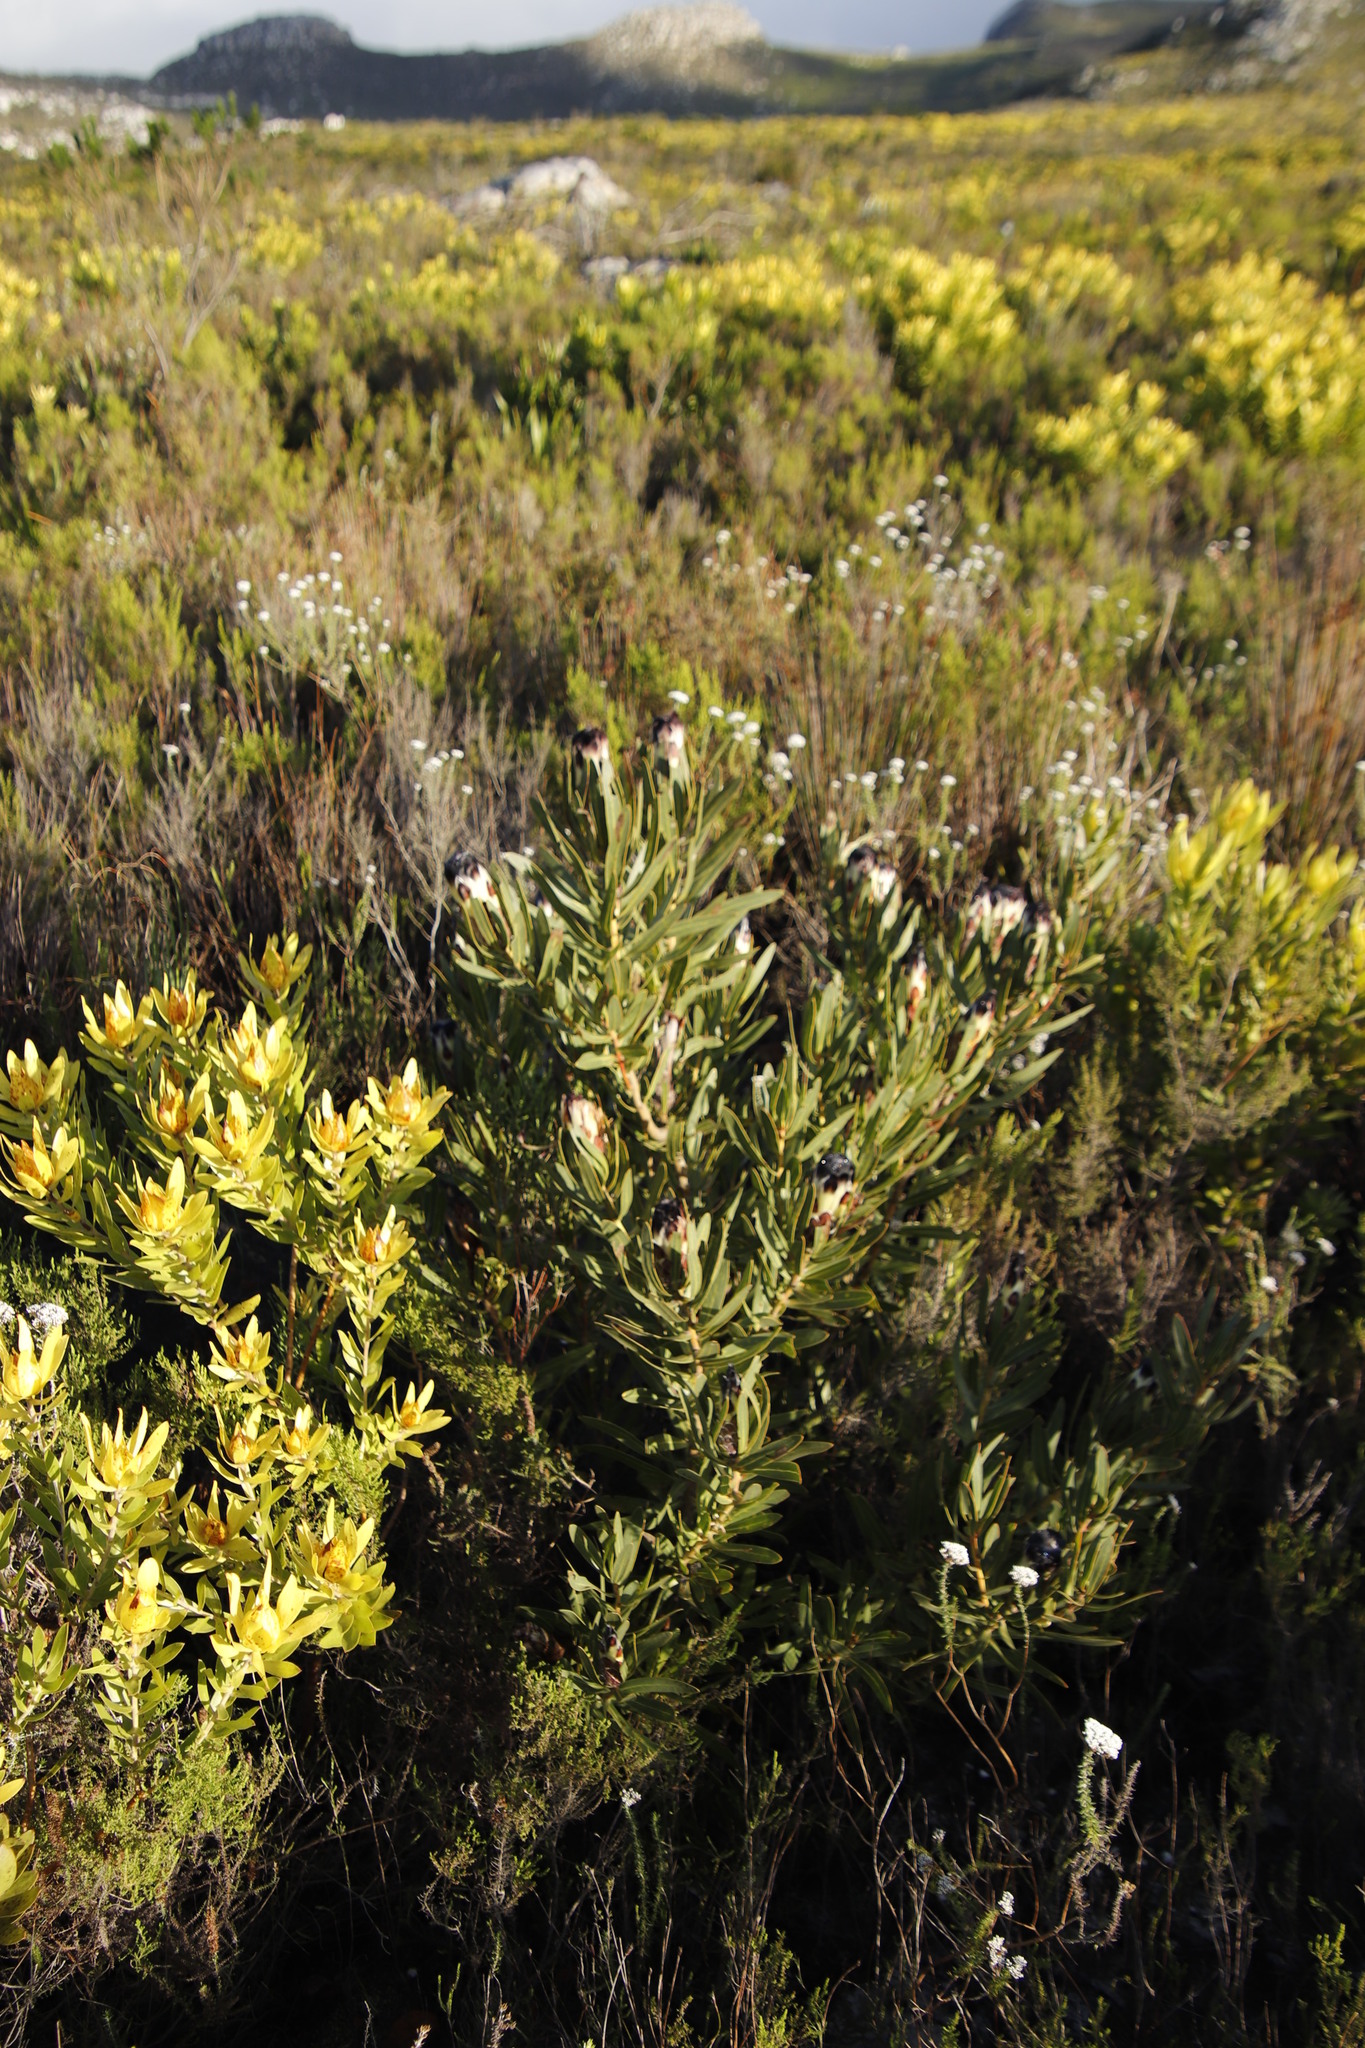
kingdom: Plantae
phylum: Tracheophyta
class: Magnoliopsida
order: Proteales
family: Proteaceae
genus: Protea
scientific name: Protea lepidocarpodendron
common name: Black-bearded protea
